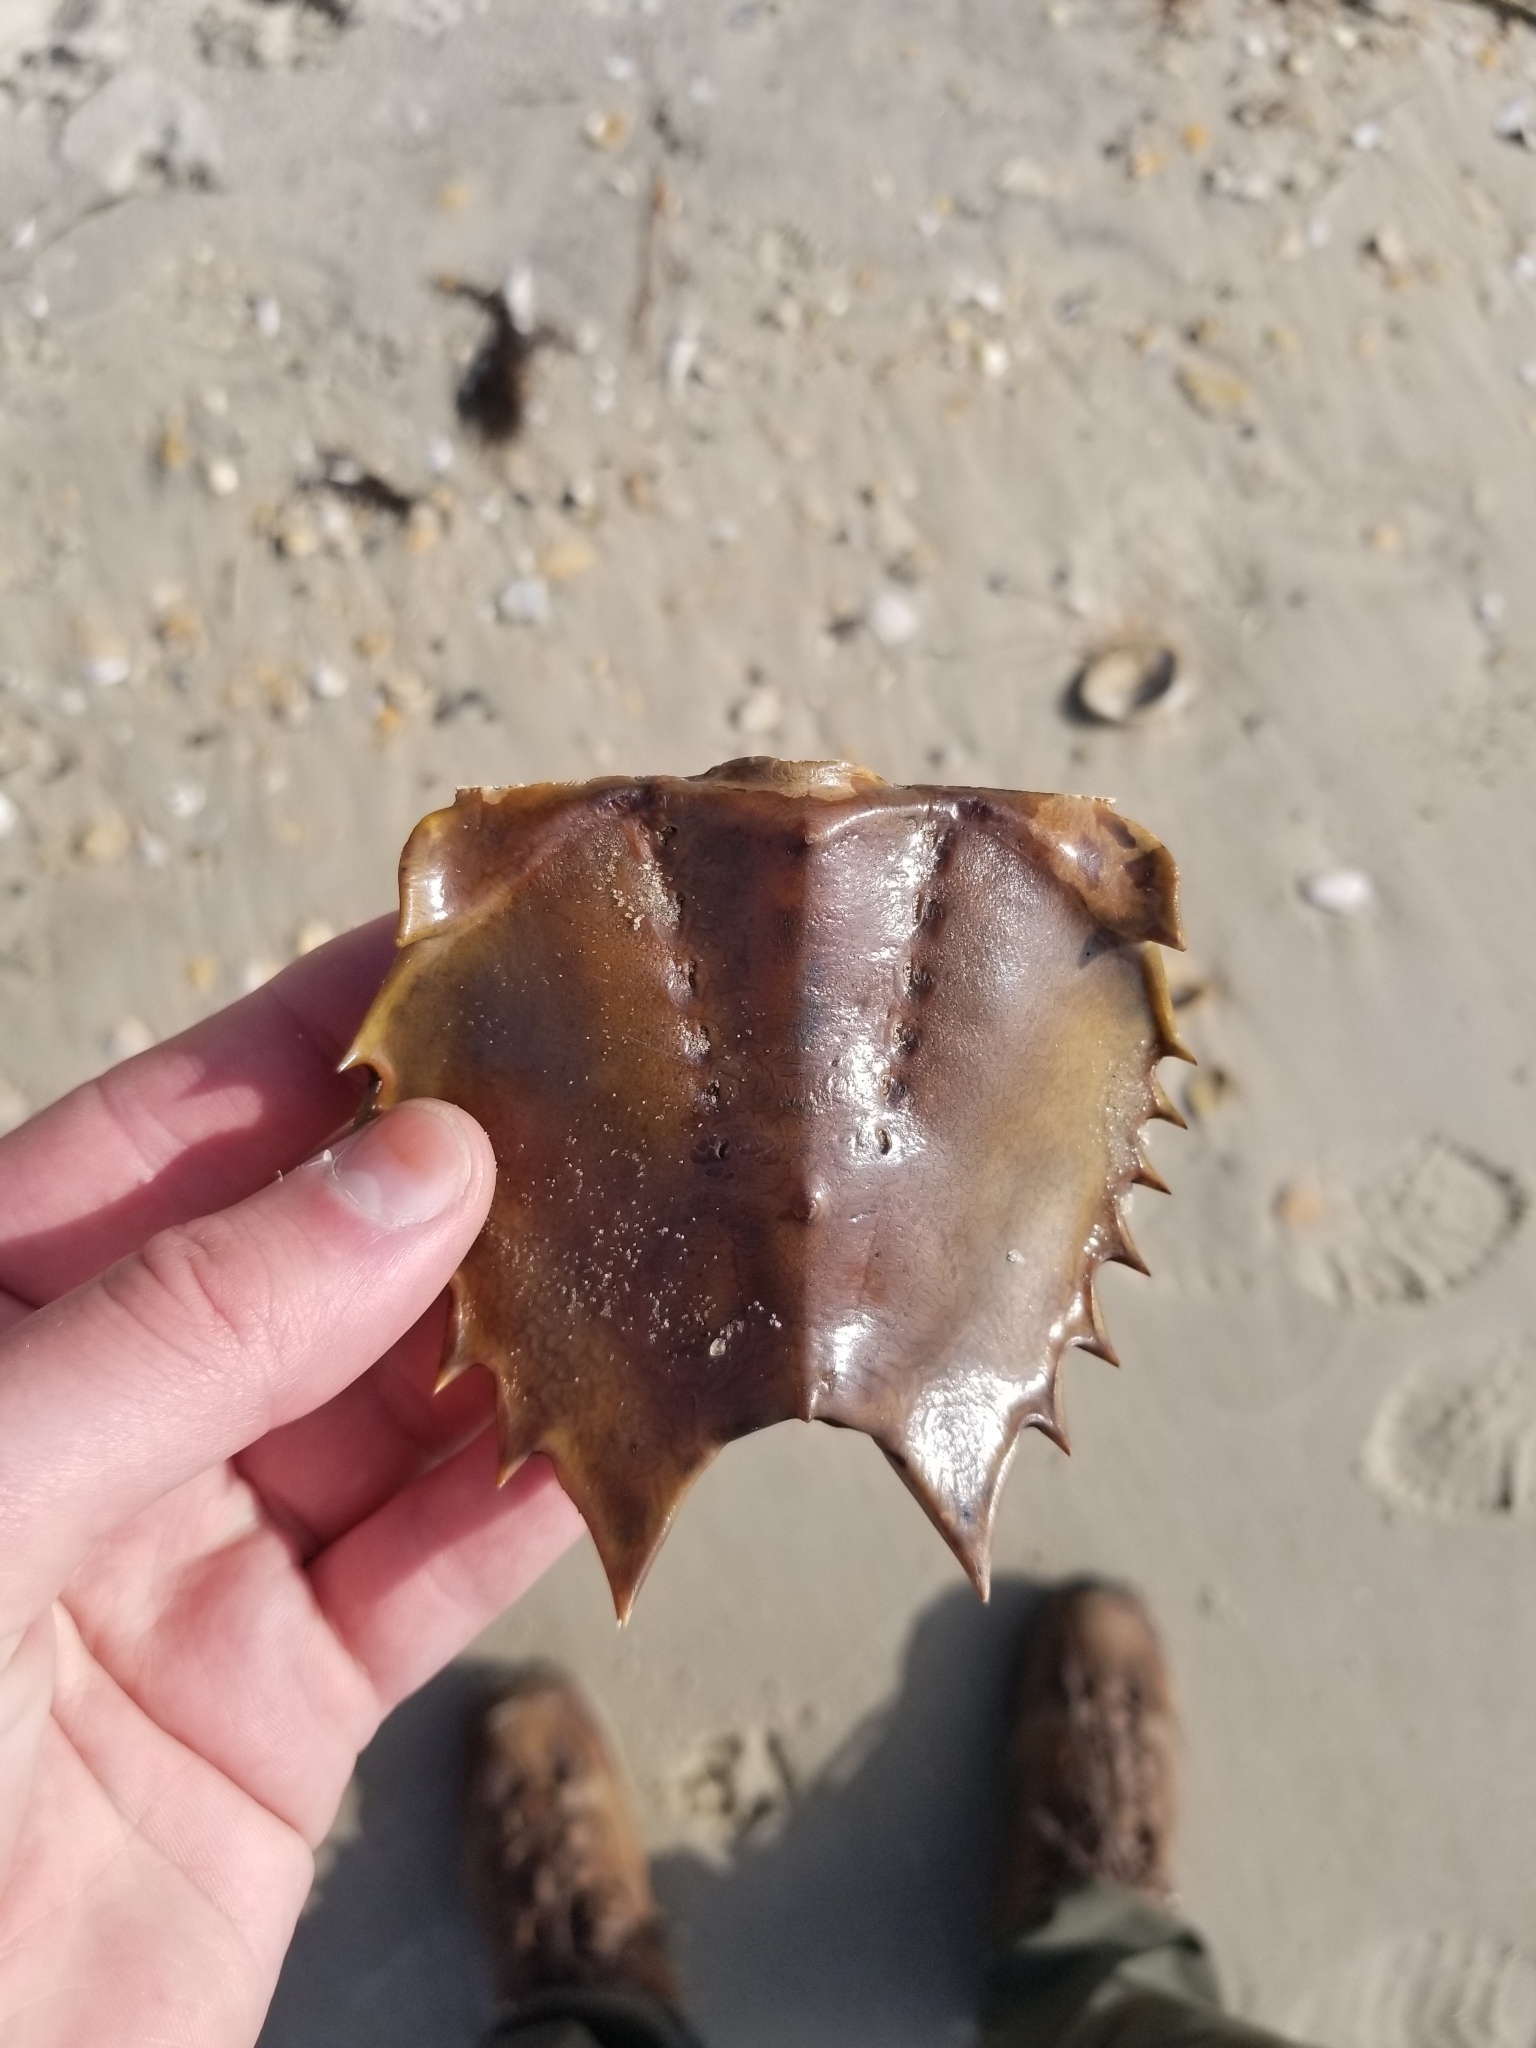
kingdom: Animalia
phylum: Arthropoda
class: Merostomata
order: Xiphosurida
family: Limulidae
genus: Limulus
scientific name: Limulus polyphemus
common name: Horseshoe crab
